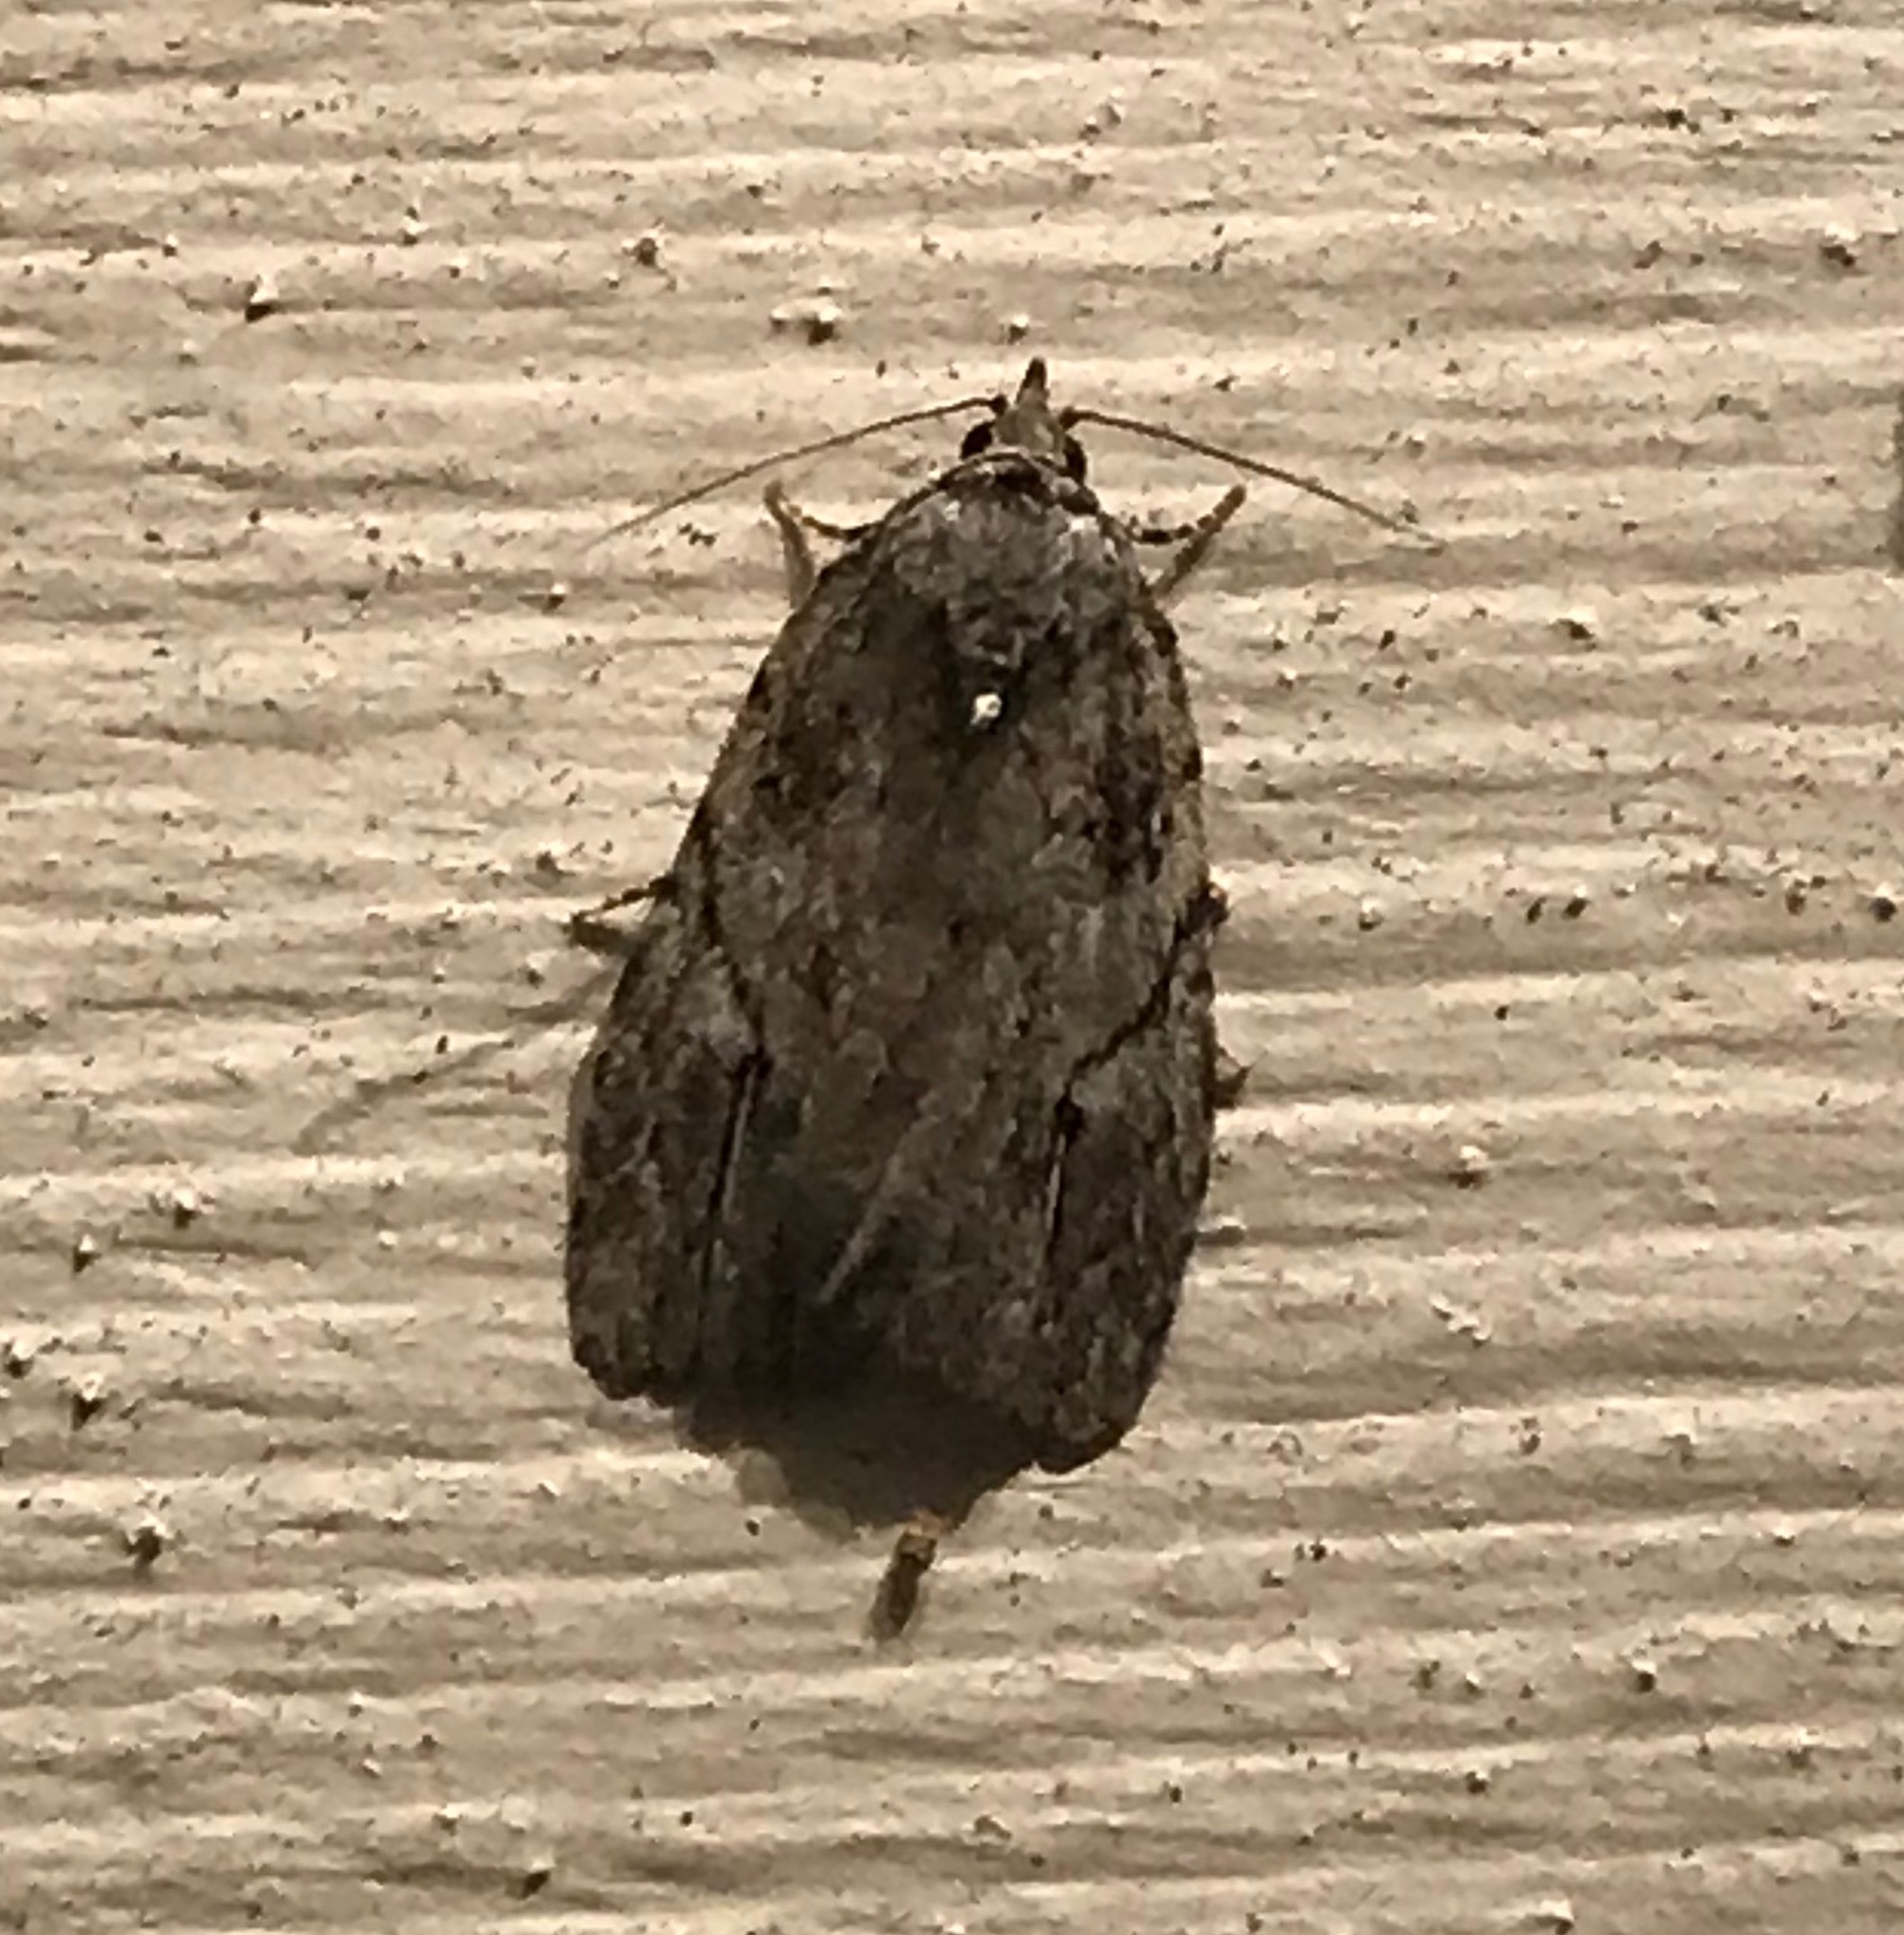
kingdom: Animalia
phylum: Arthropoda
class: Insecta
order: Lepidoptera
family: Noctuidae
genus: Balsa
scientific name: Balsa labecula
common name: White-blotched balsa moth
